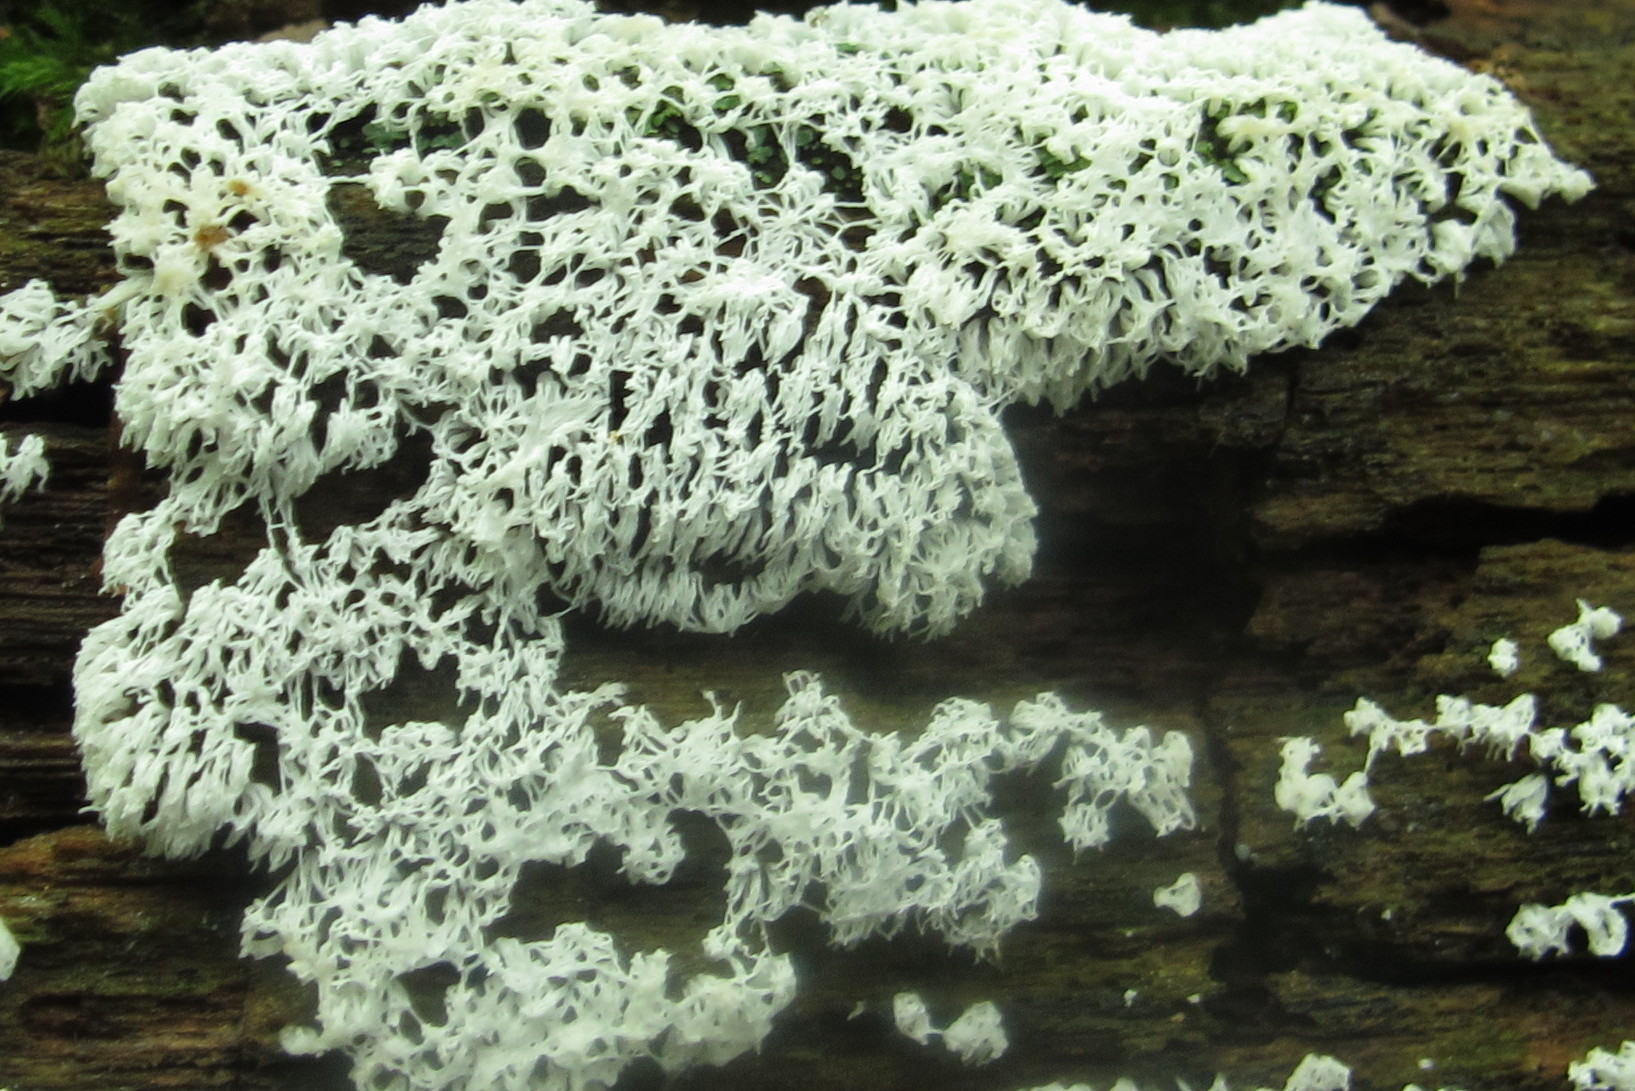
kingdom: Protozoa
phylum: Mycetozoa
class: Protosteliomycetes
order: Ceratiomyxales
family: Ceratiomyxaceae
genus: Ceratiomyxa
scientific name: Ceratiomyxa fruticulosa
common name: Honeycomb coral slime mold
